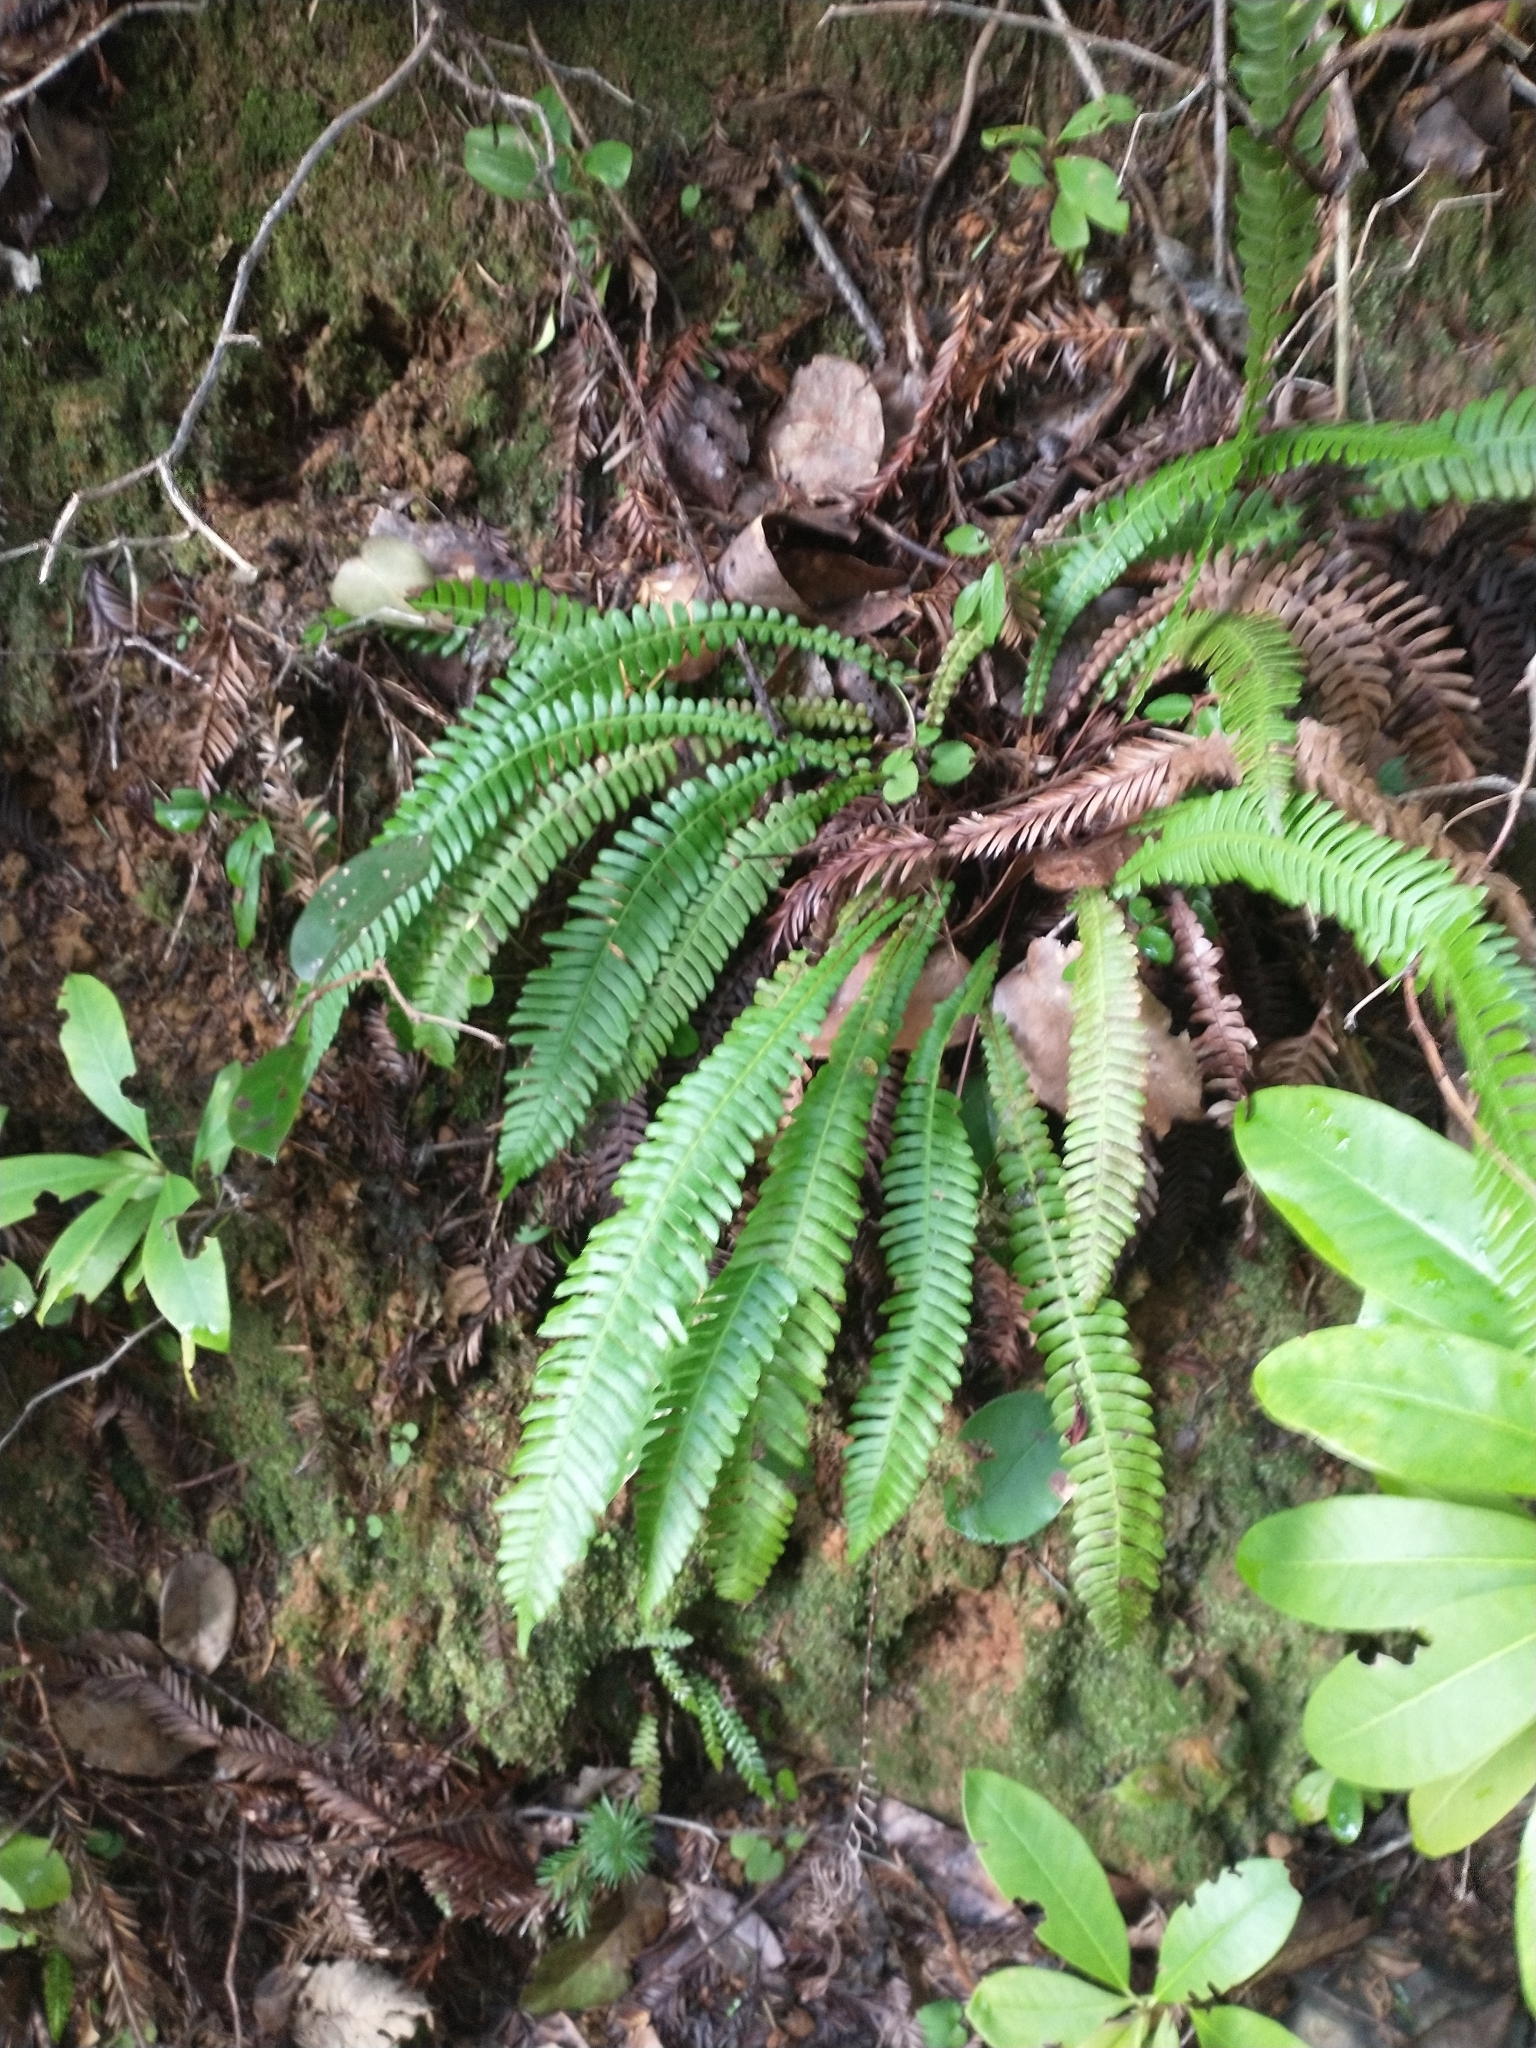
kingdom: Plantae
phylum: Tracheophyta
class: Polypodiopsida
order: Polypodiales
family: Blechnaceae
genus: Struthiopteris
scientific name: Struthiopteris spicant
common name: Deer fern
